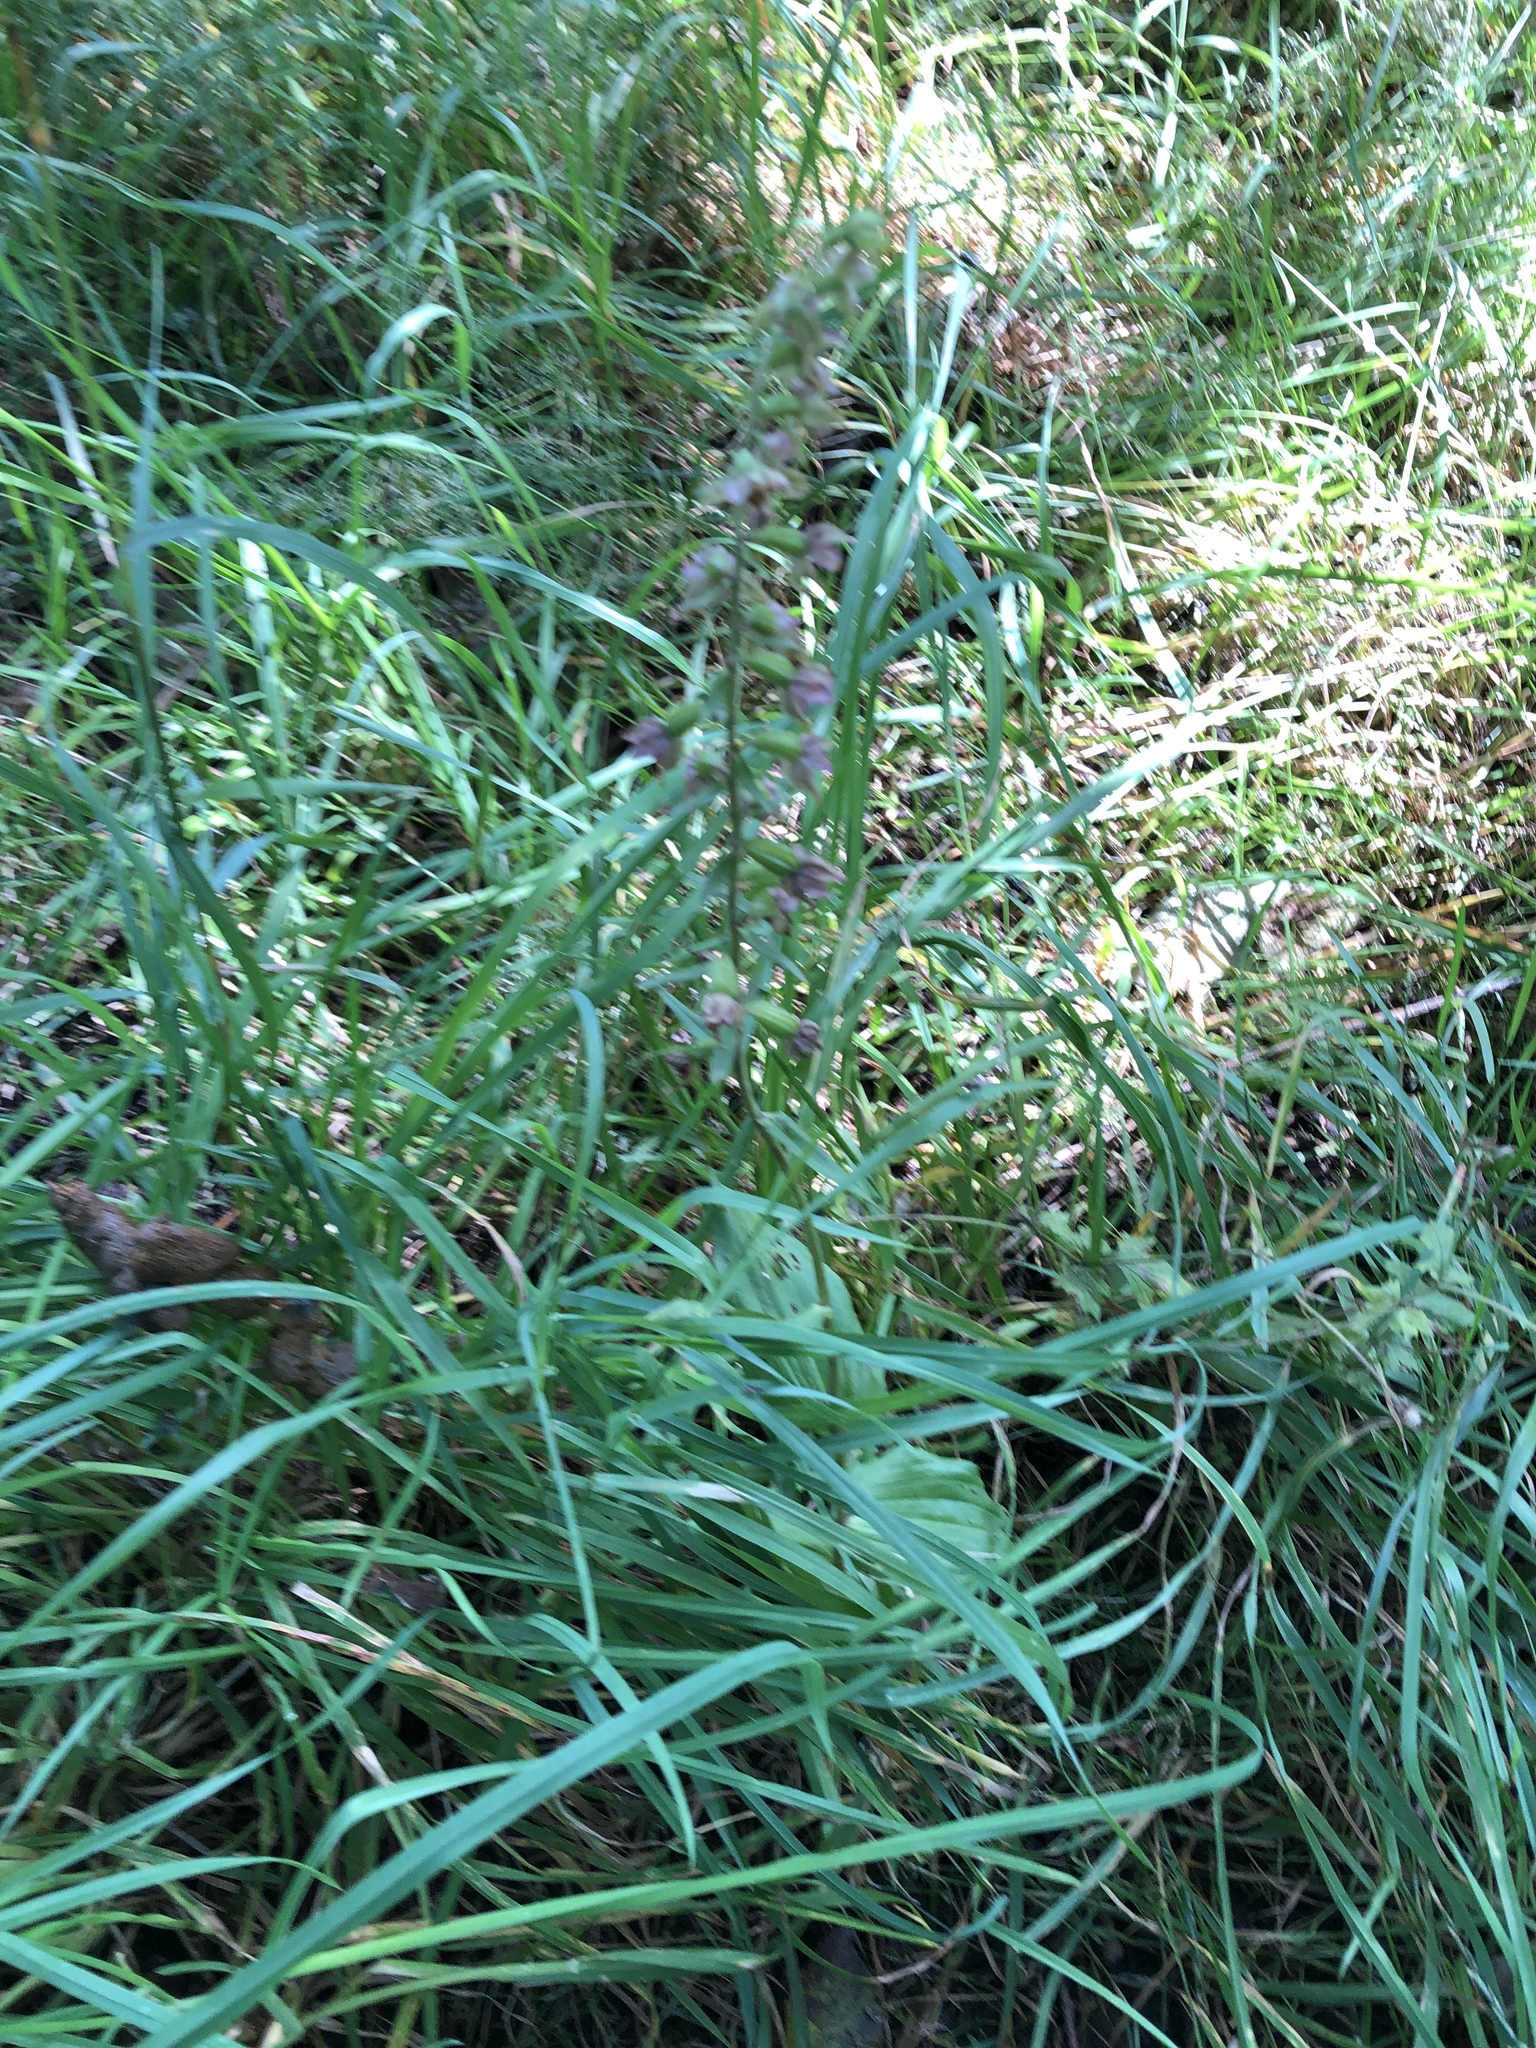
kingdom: Plantae
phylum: Tracheophyta
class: Liliopsida
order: Asparagales
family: Orchidaceae
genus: Epipactis
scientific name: Epipactis helleborine
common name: Broad-leaved helleborine
